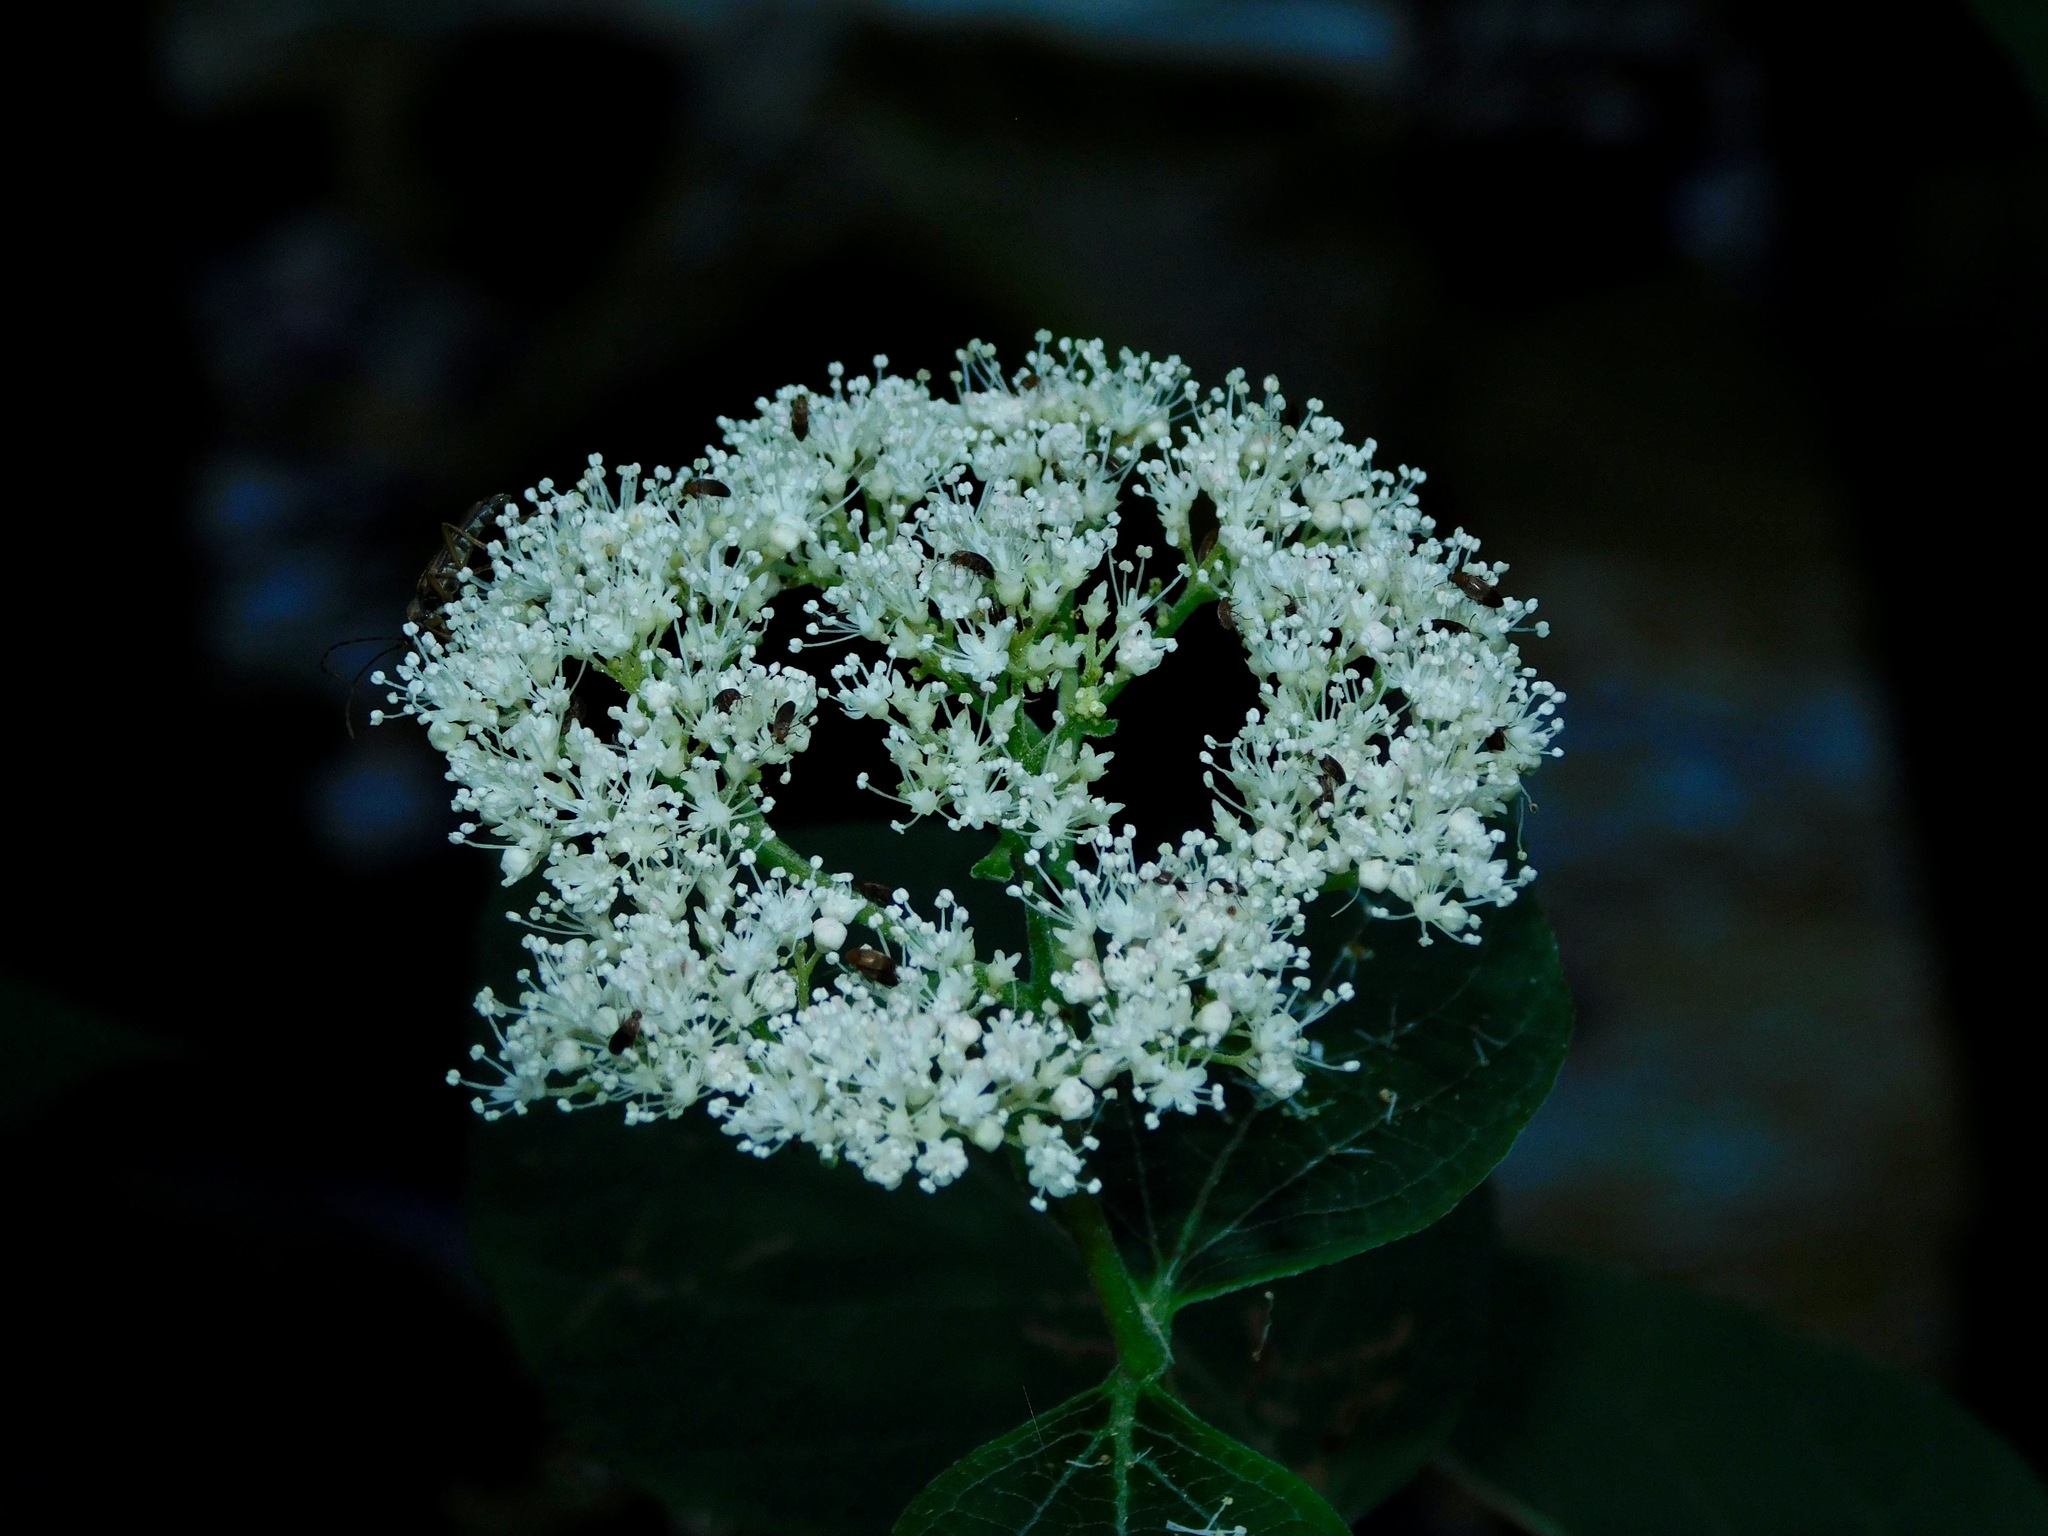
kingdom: Plantae
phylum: Tracheophyta
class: Magnoliopsida
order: Cornales
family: Hydrangeaceae
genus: Hydrangea
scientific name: Hydrangea arborescens
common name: Sevenbark
